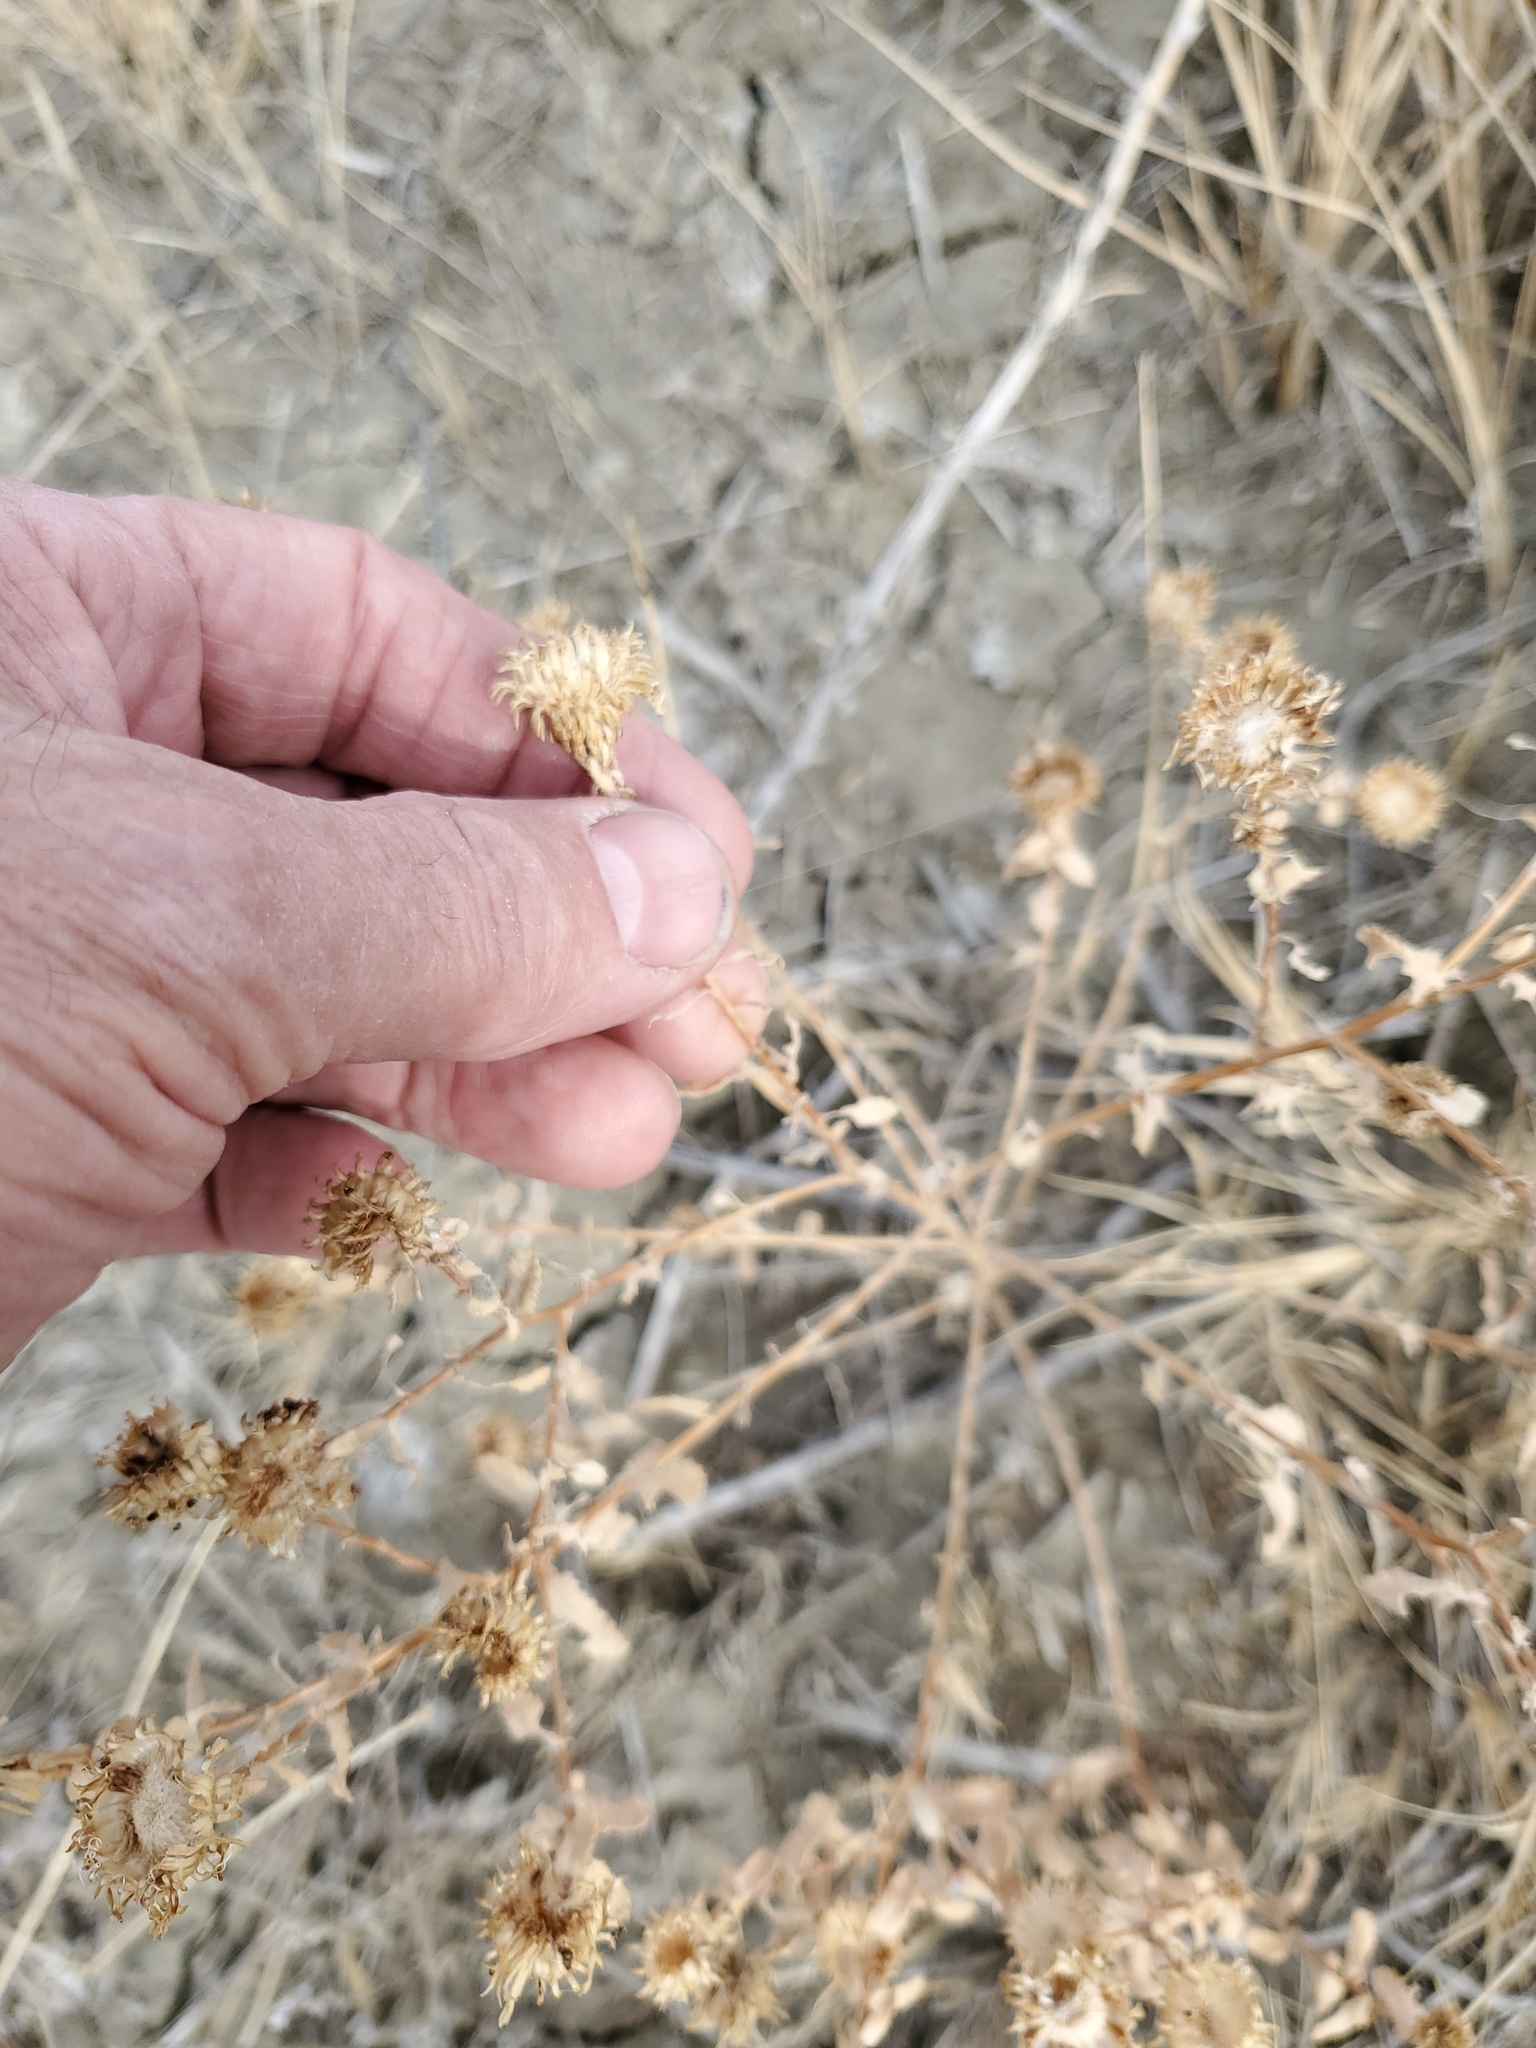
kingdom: Plantae
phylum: Tracheophyta
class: Magnoliopsida
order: Asterales
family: Asteraceae
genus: Grindelia
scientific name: Grindelia squarrosa
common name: Curly-cup gumweed
